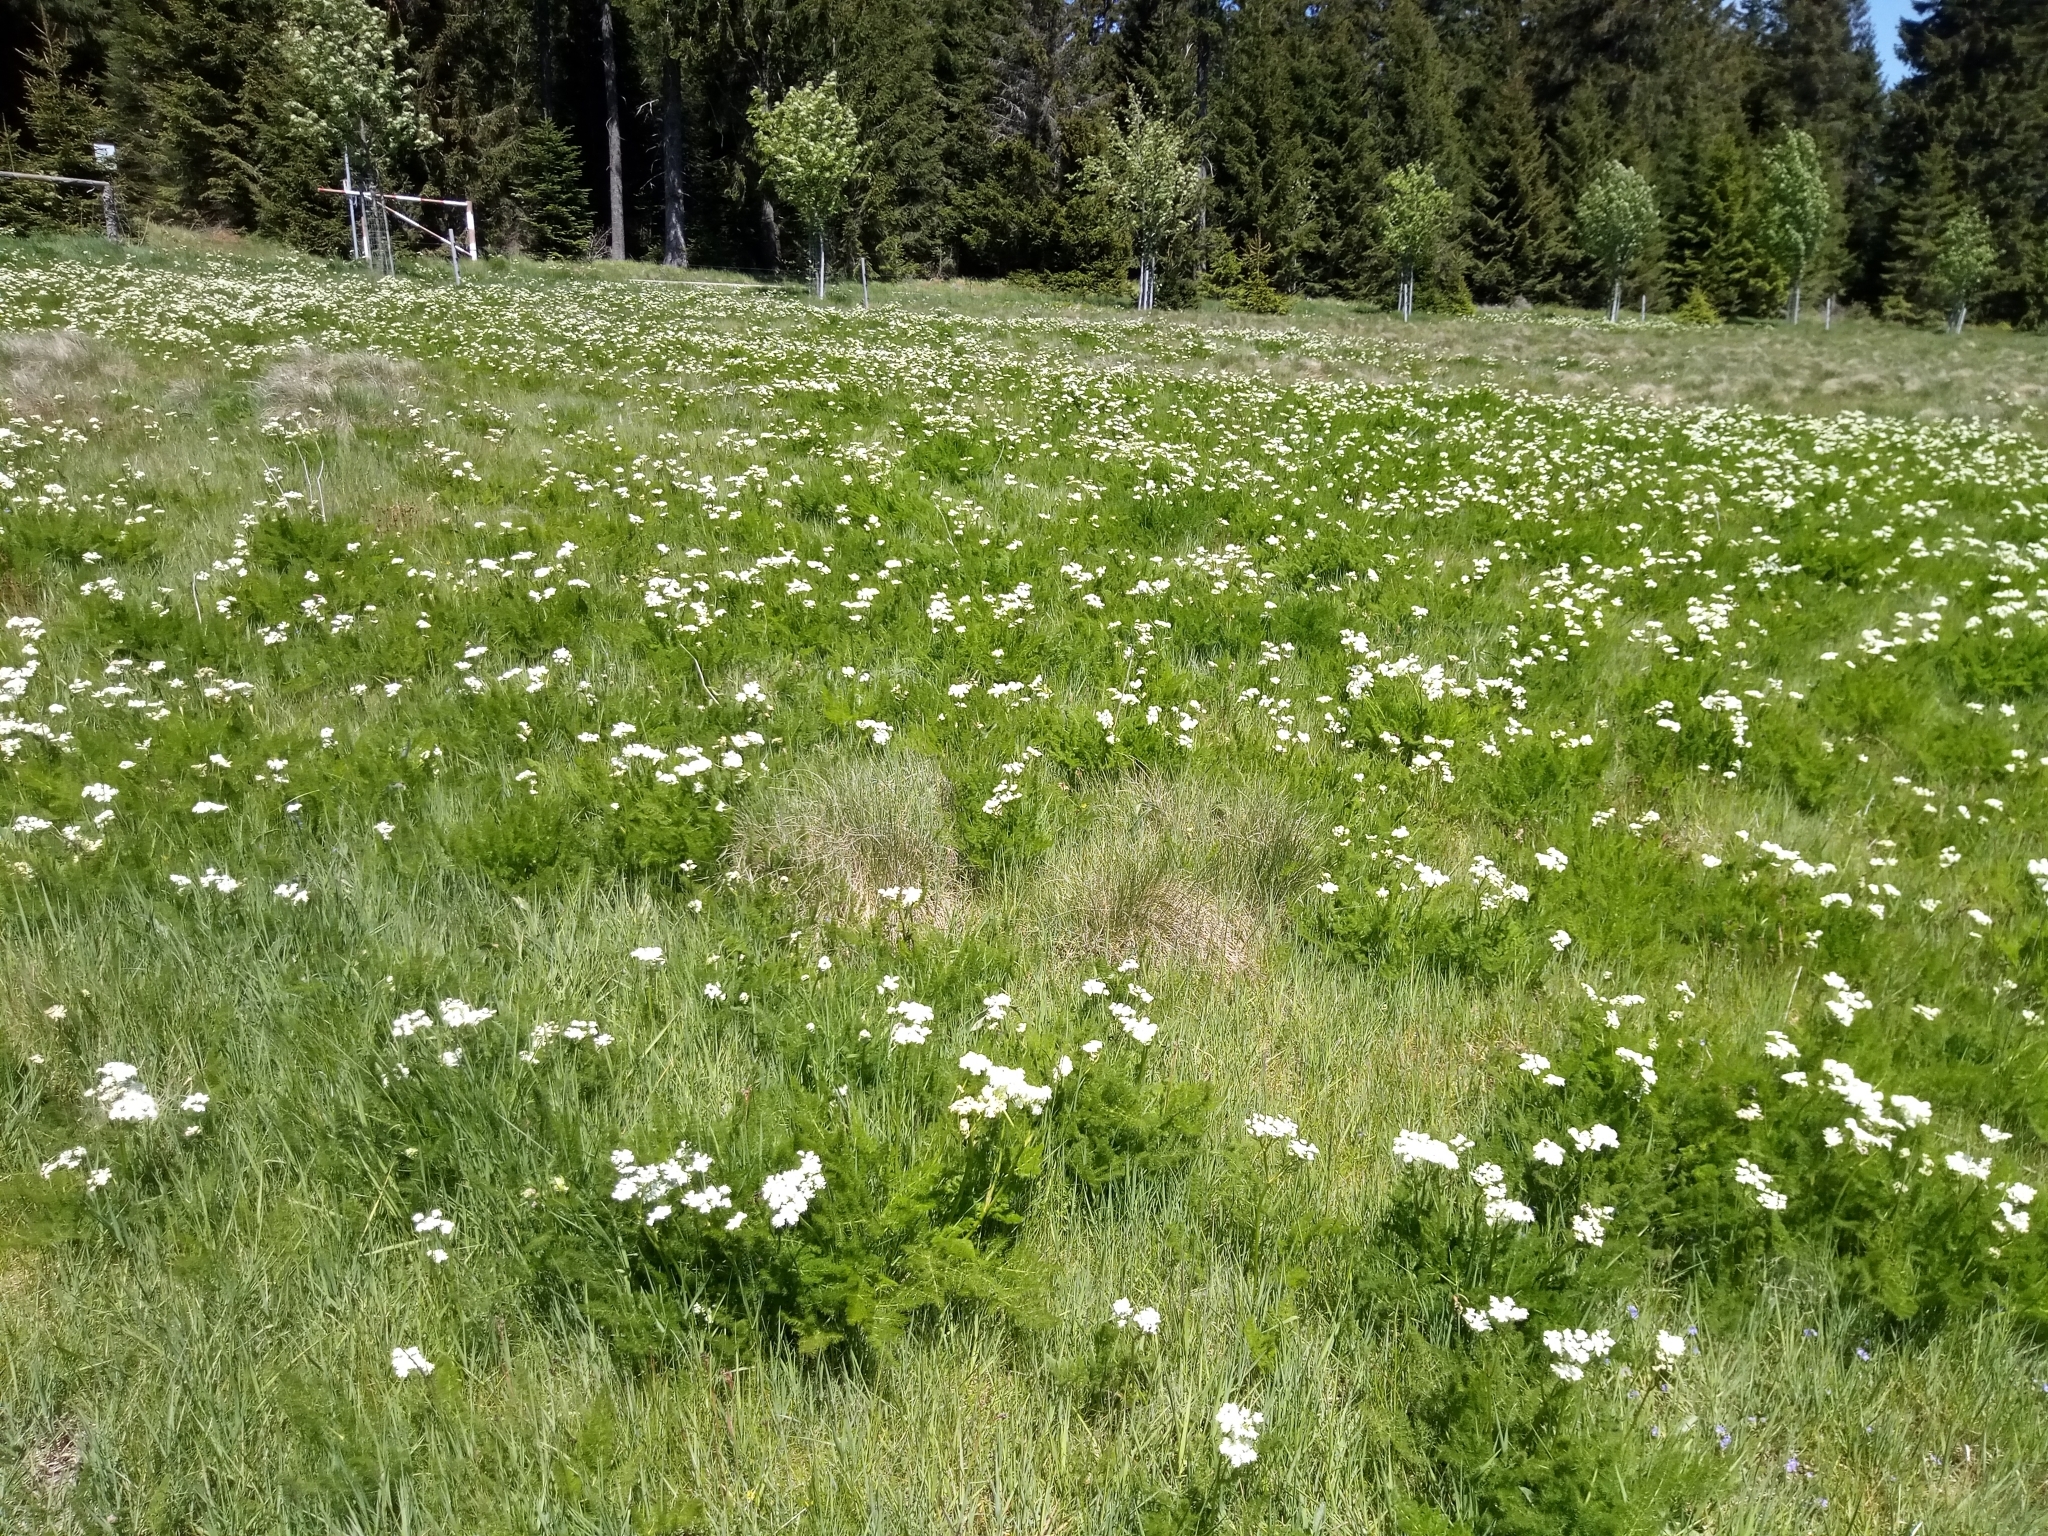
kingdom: Plantae
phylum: Tracheophyta
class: Magnoliopsida
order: Apiales
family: Apiaceae
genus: Meum
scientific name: Meum athamanticum
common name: Spignel
